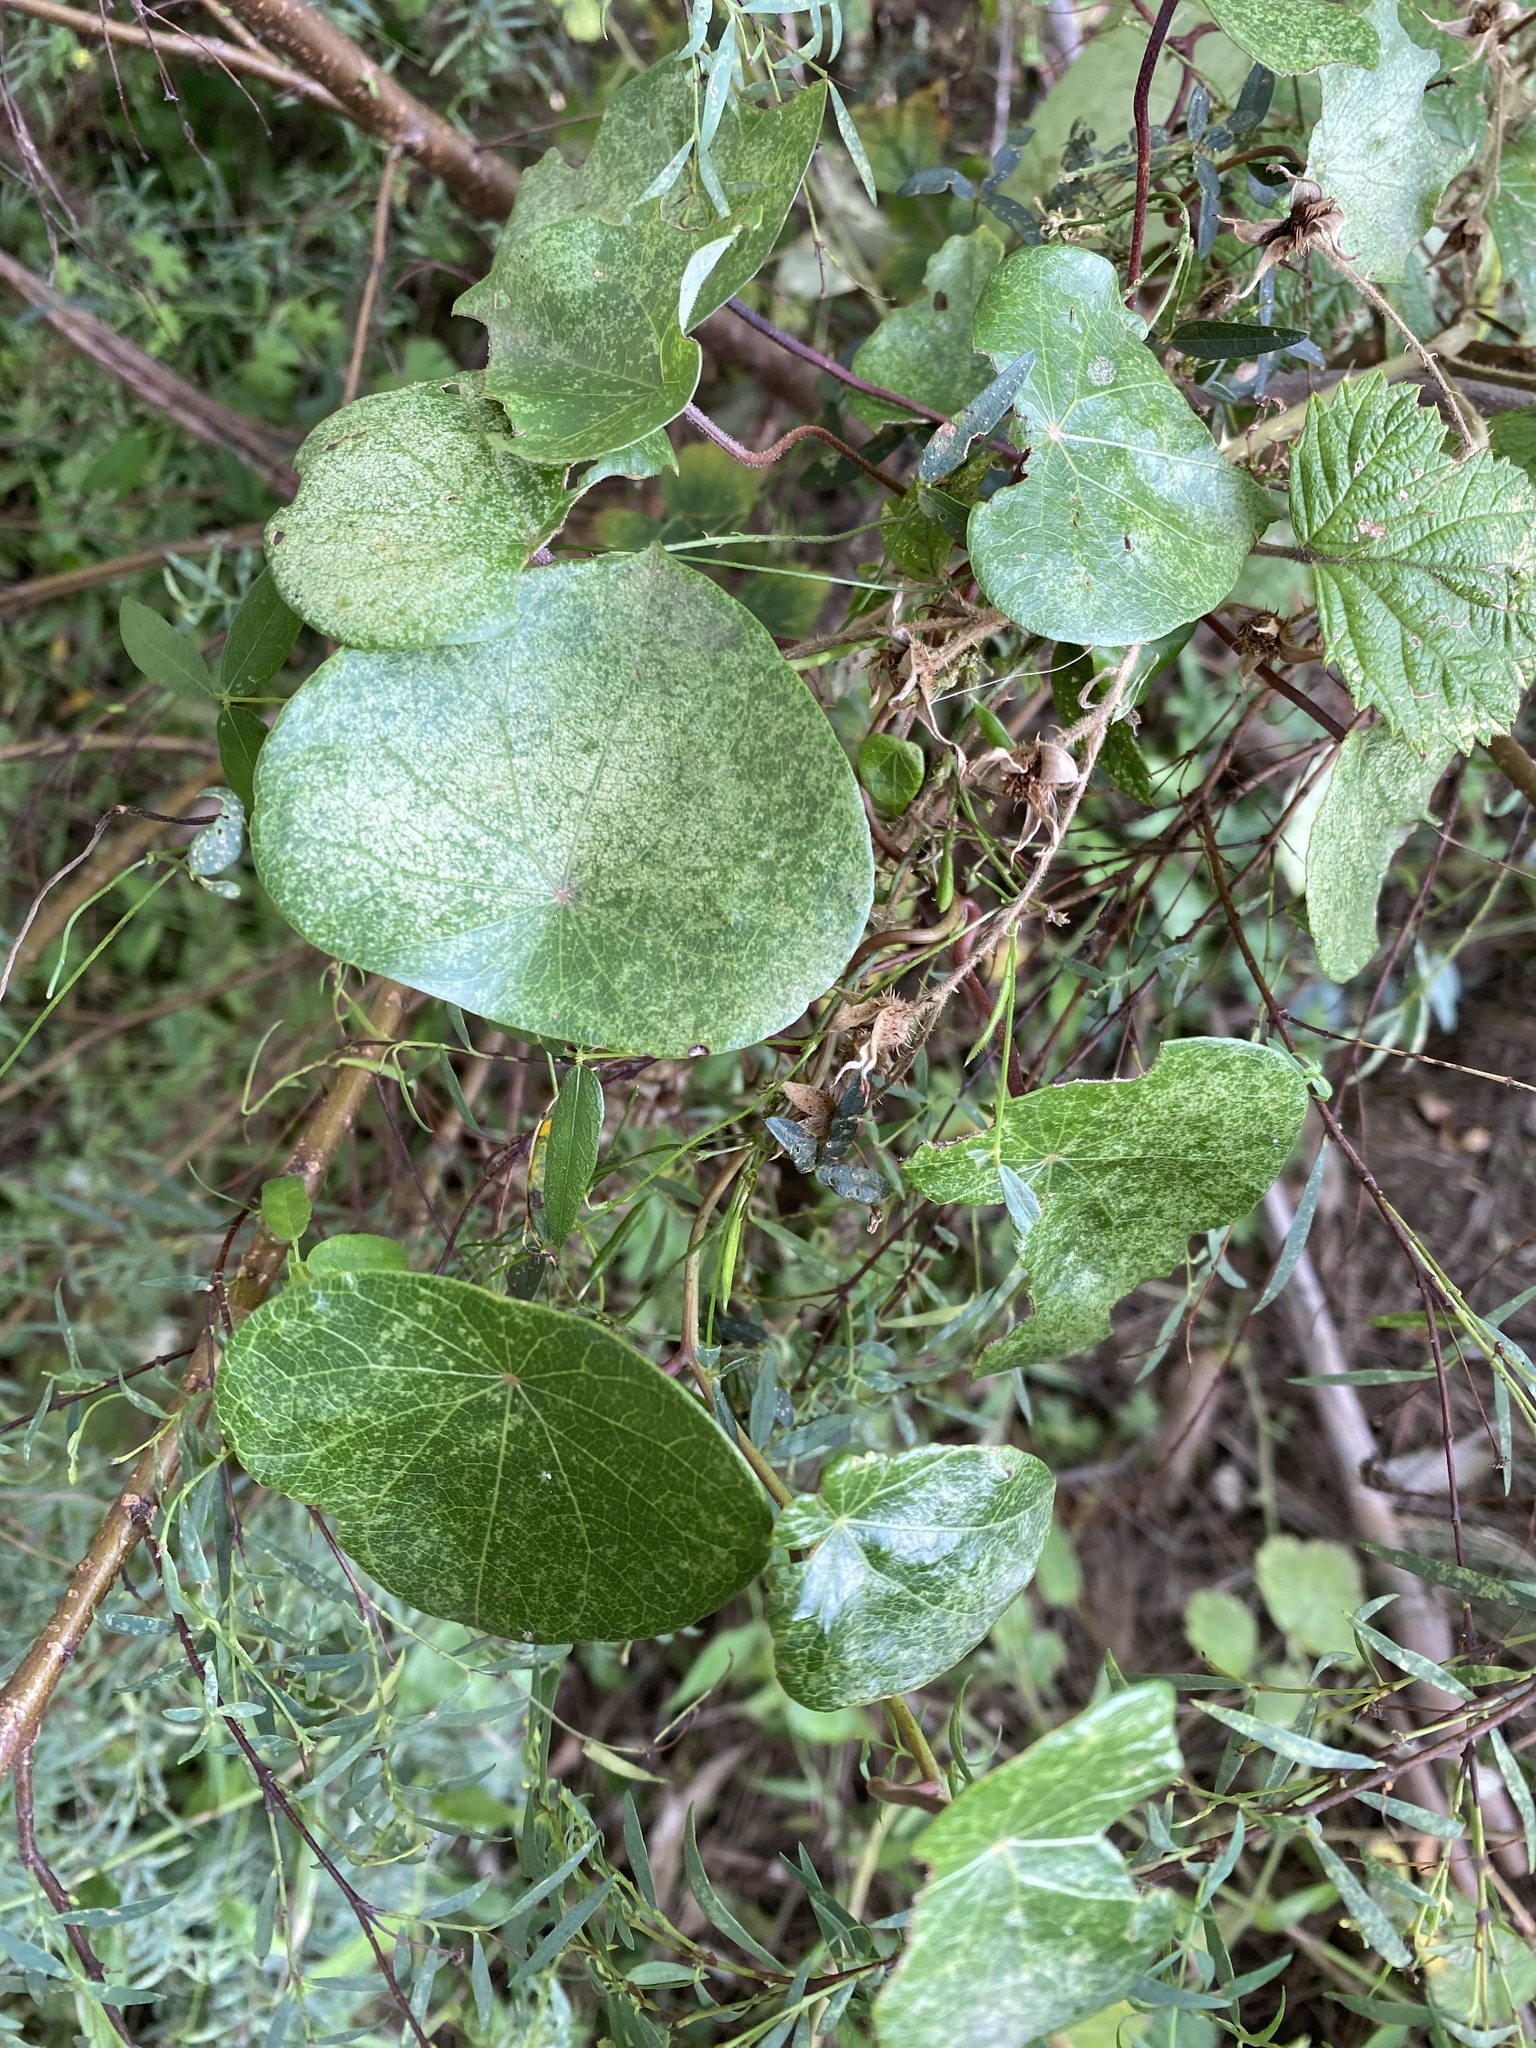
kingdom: Plantae
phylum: Tracheophyta
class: Magnoliopsida
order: Ranunculales
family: Menispermaceae
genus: Stephania
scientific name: Stephania japonica
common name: Snake vine
